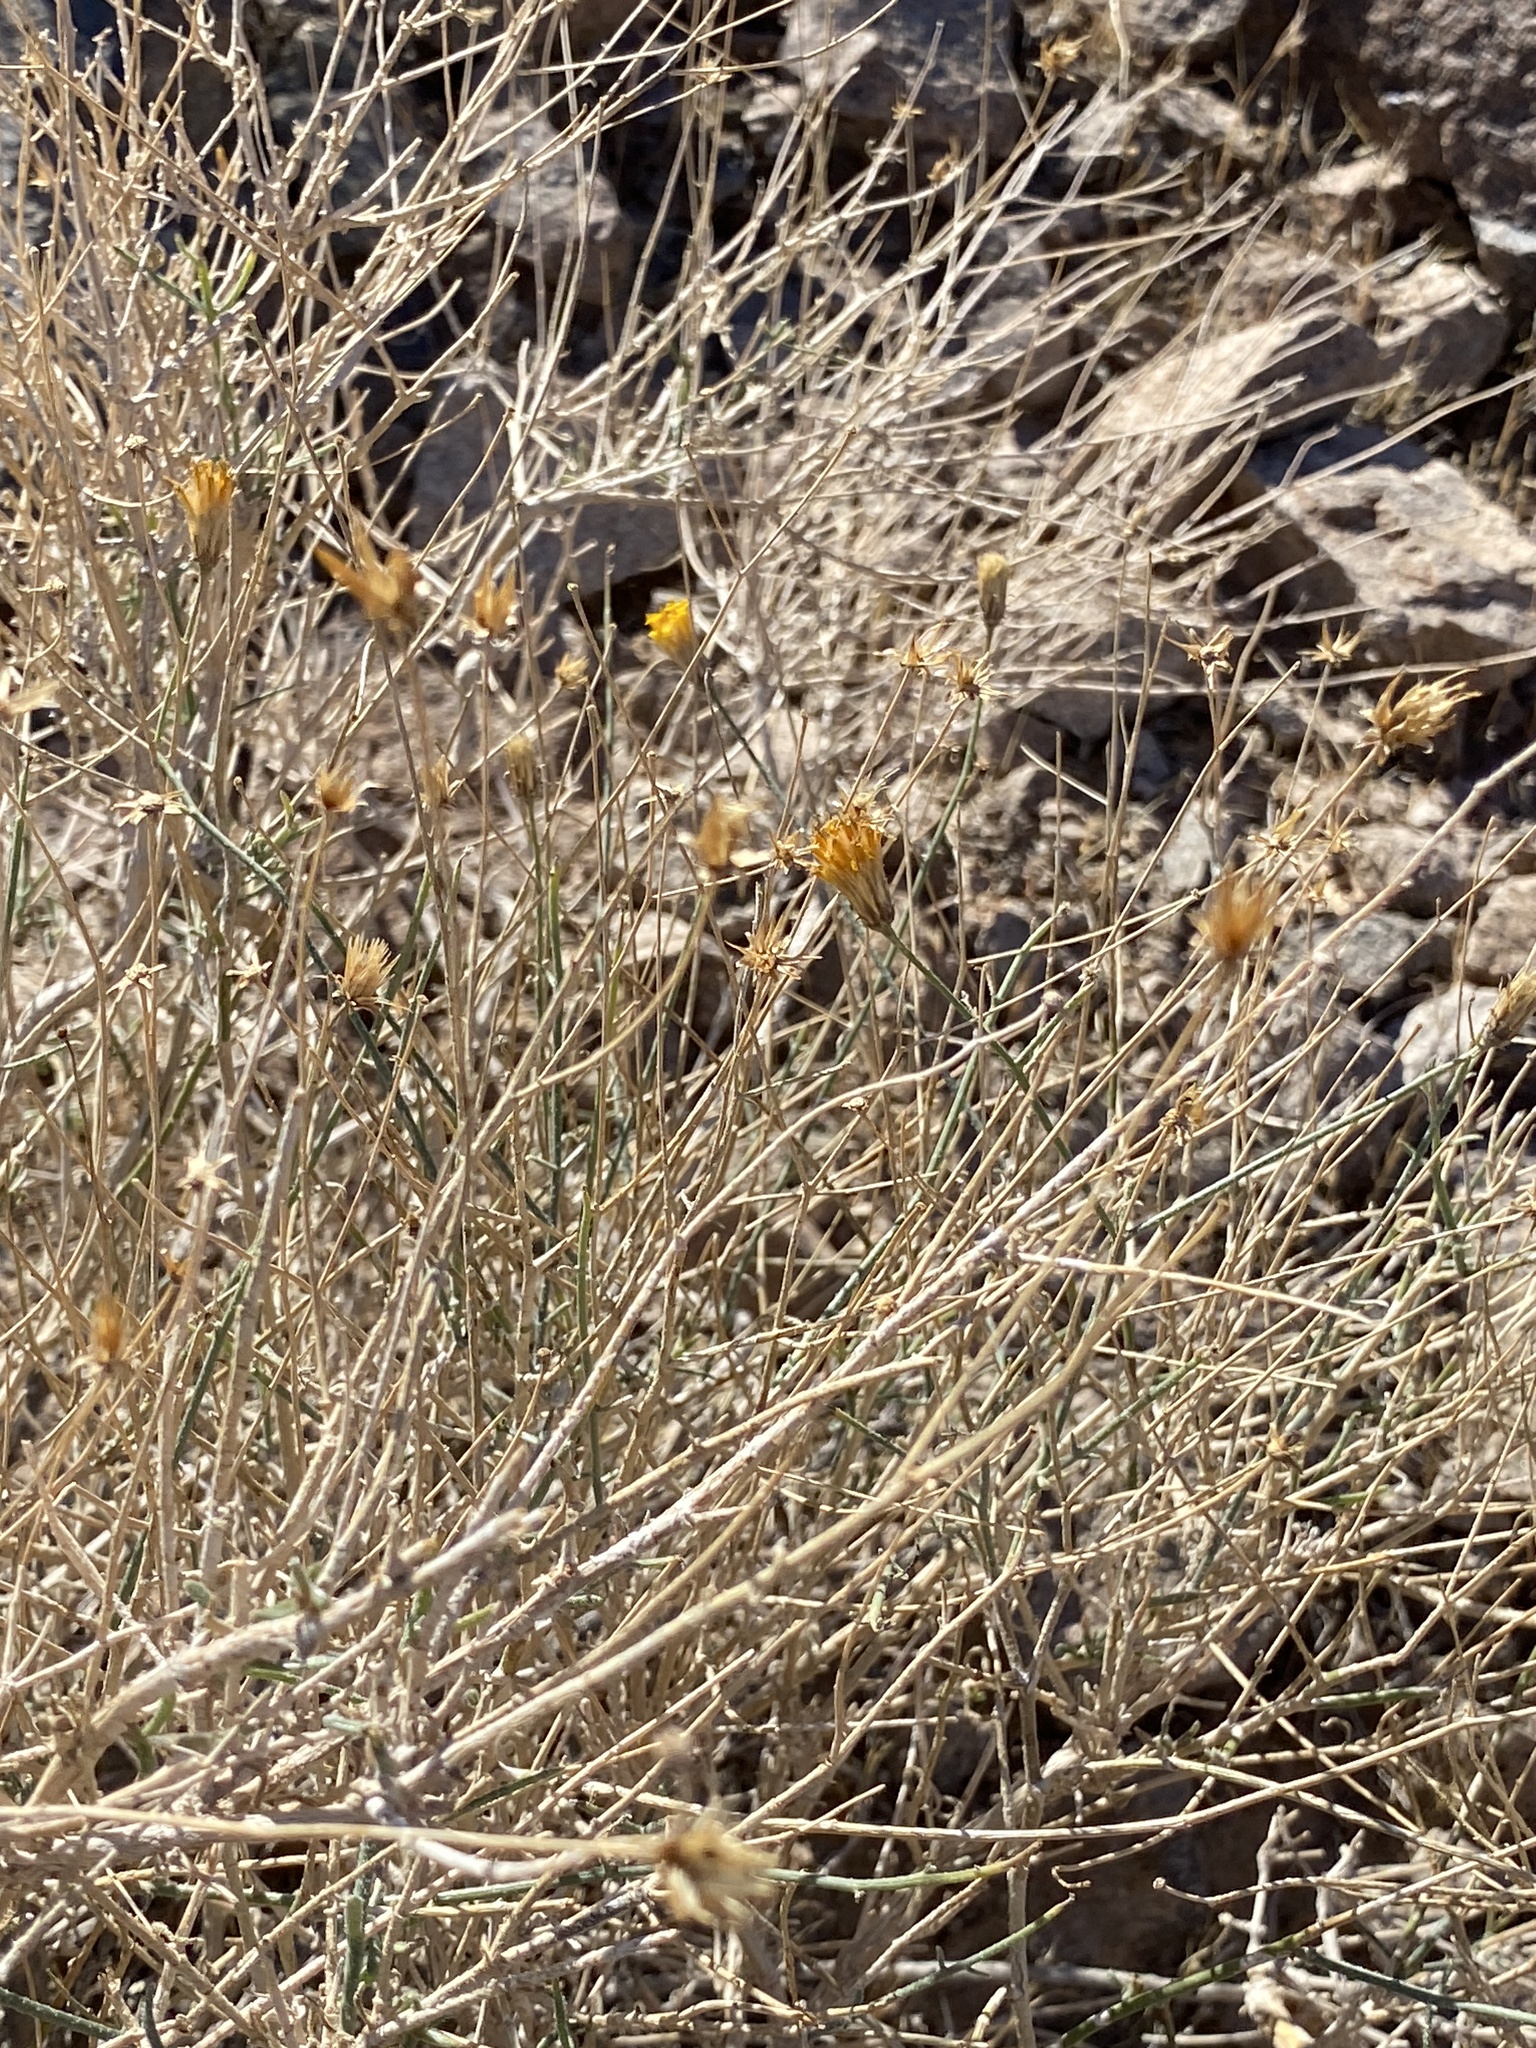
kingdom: Plantae
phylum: Tracheophyta
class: Magnoliopsida
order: Asterales
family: Asteraceae
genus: Bebbia
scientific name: Bebbia juncea
